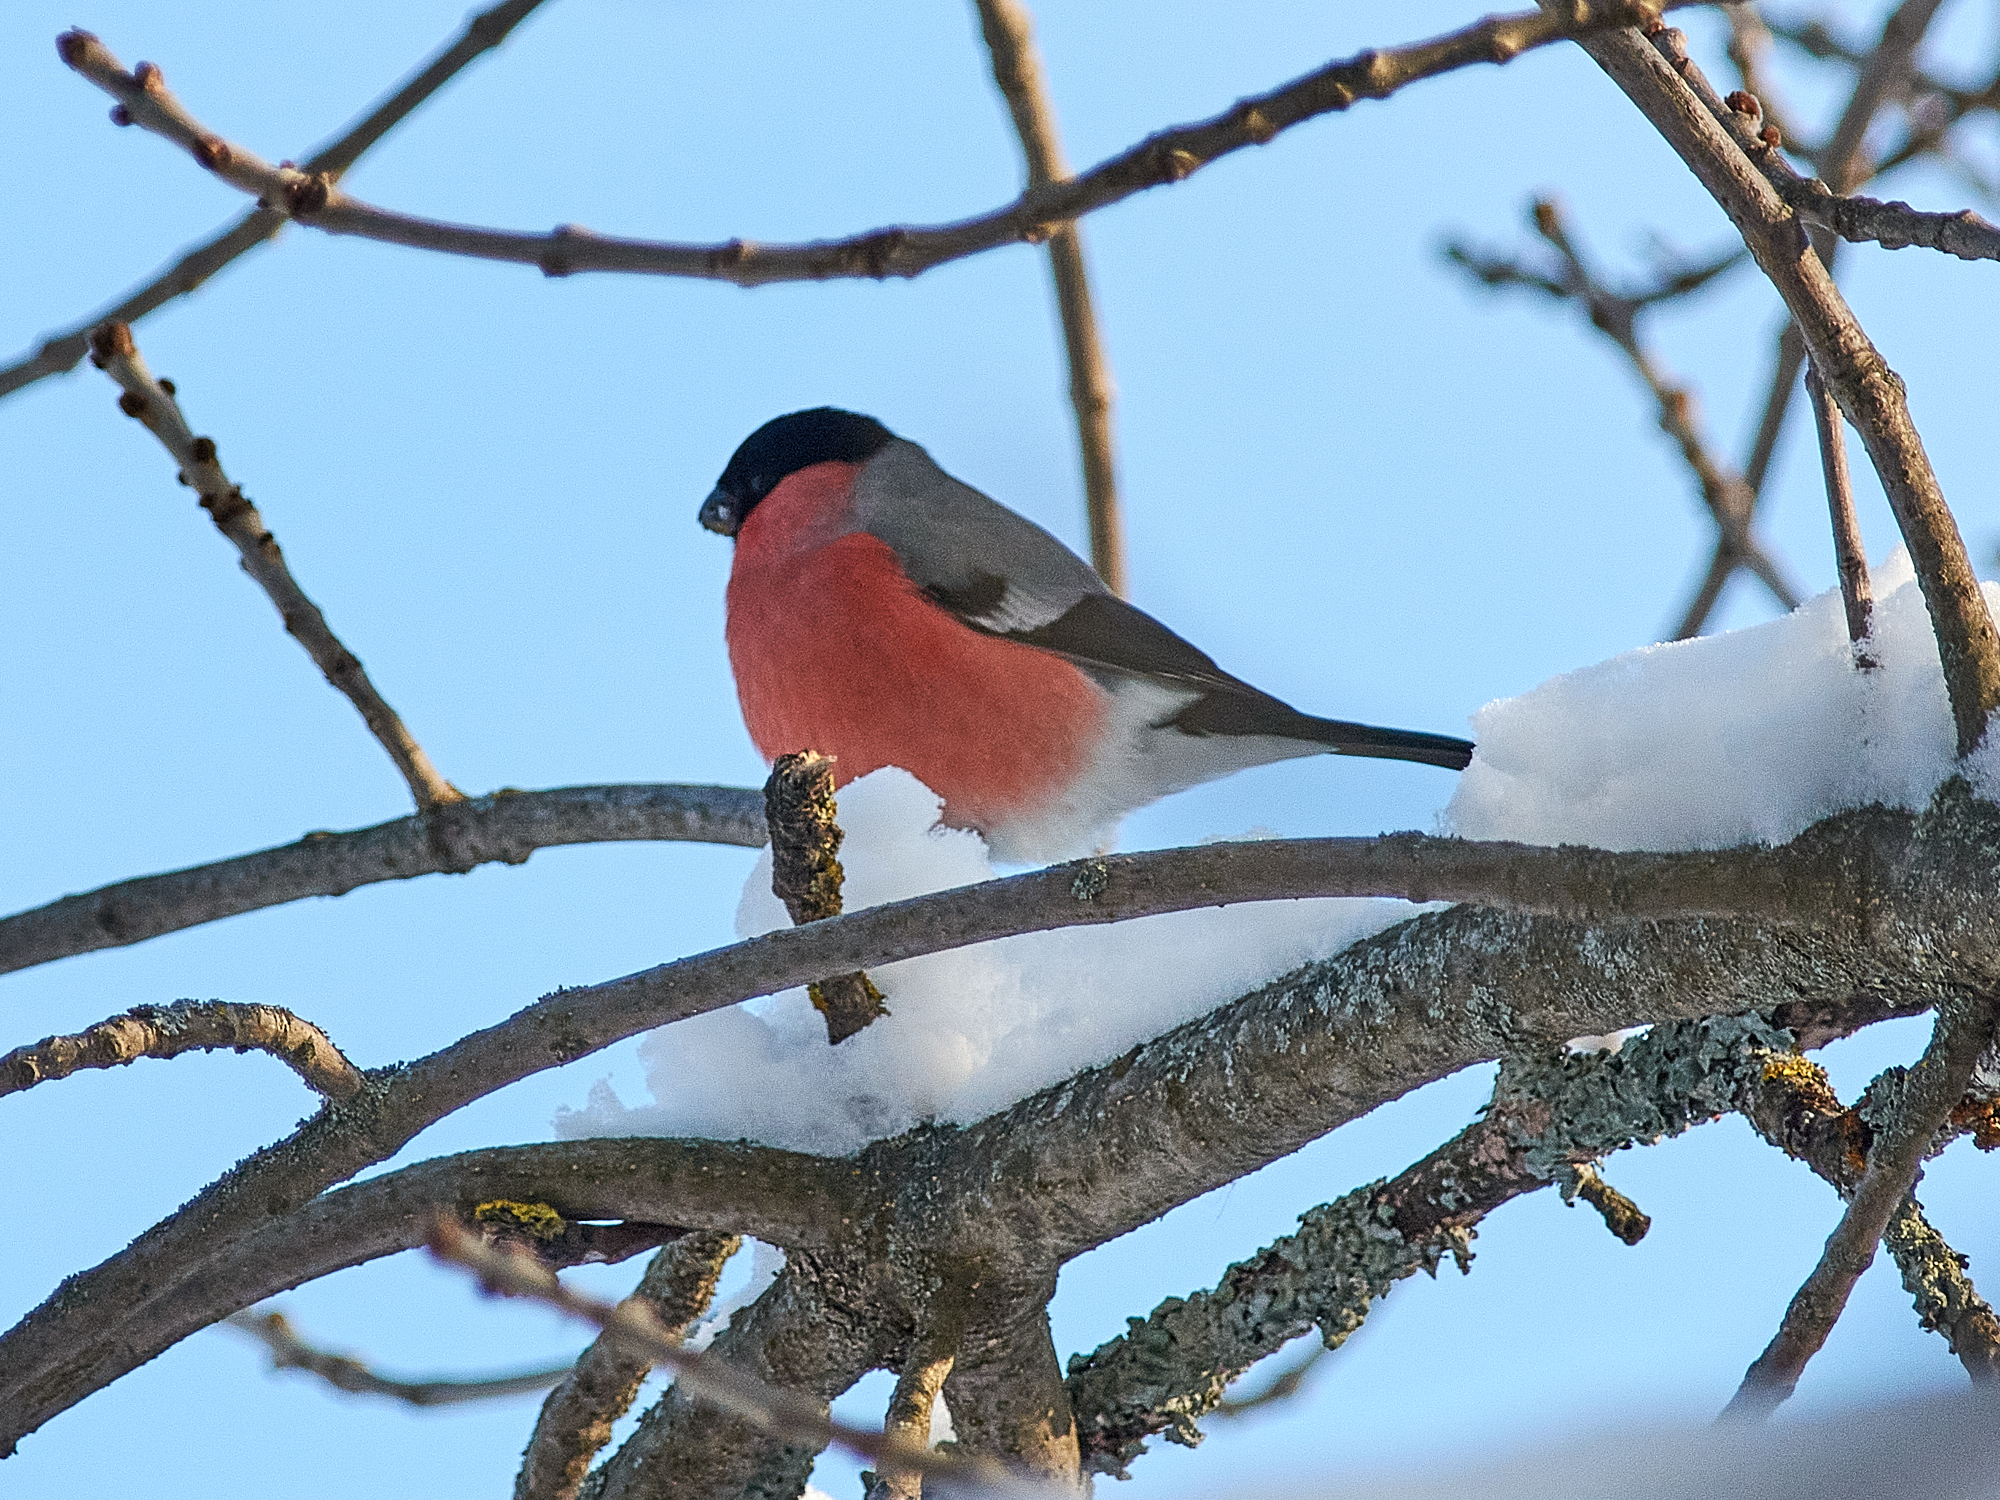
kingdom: Animalia
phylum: Chordata
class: Aves
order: Passeriformes
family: Fringillidae
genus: Pyrrhula
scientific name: Pyrrhula pyrrhula
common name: Eurasian bullfinch
